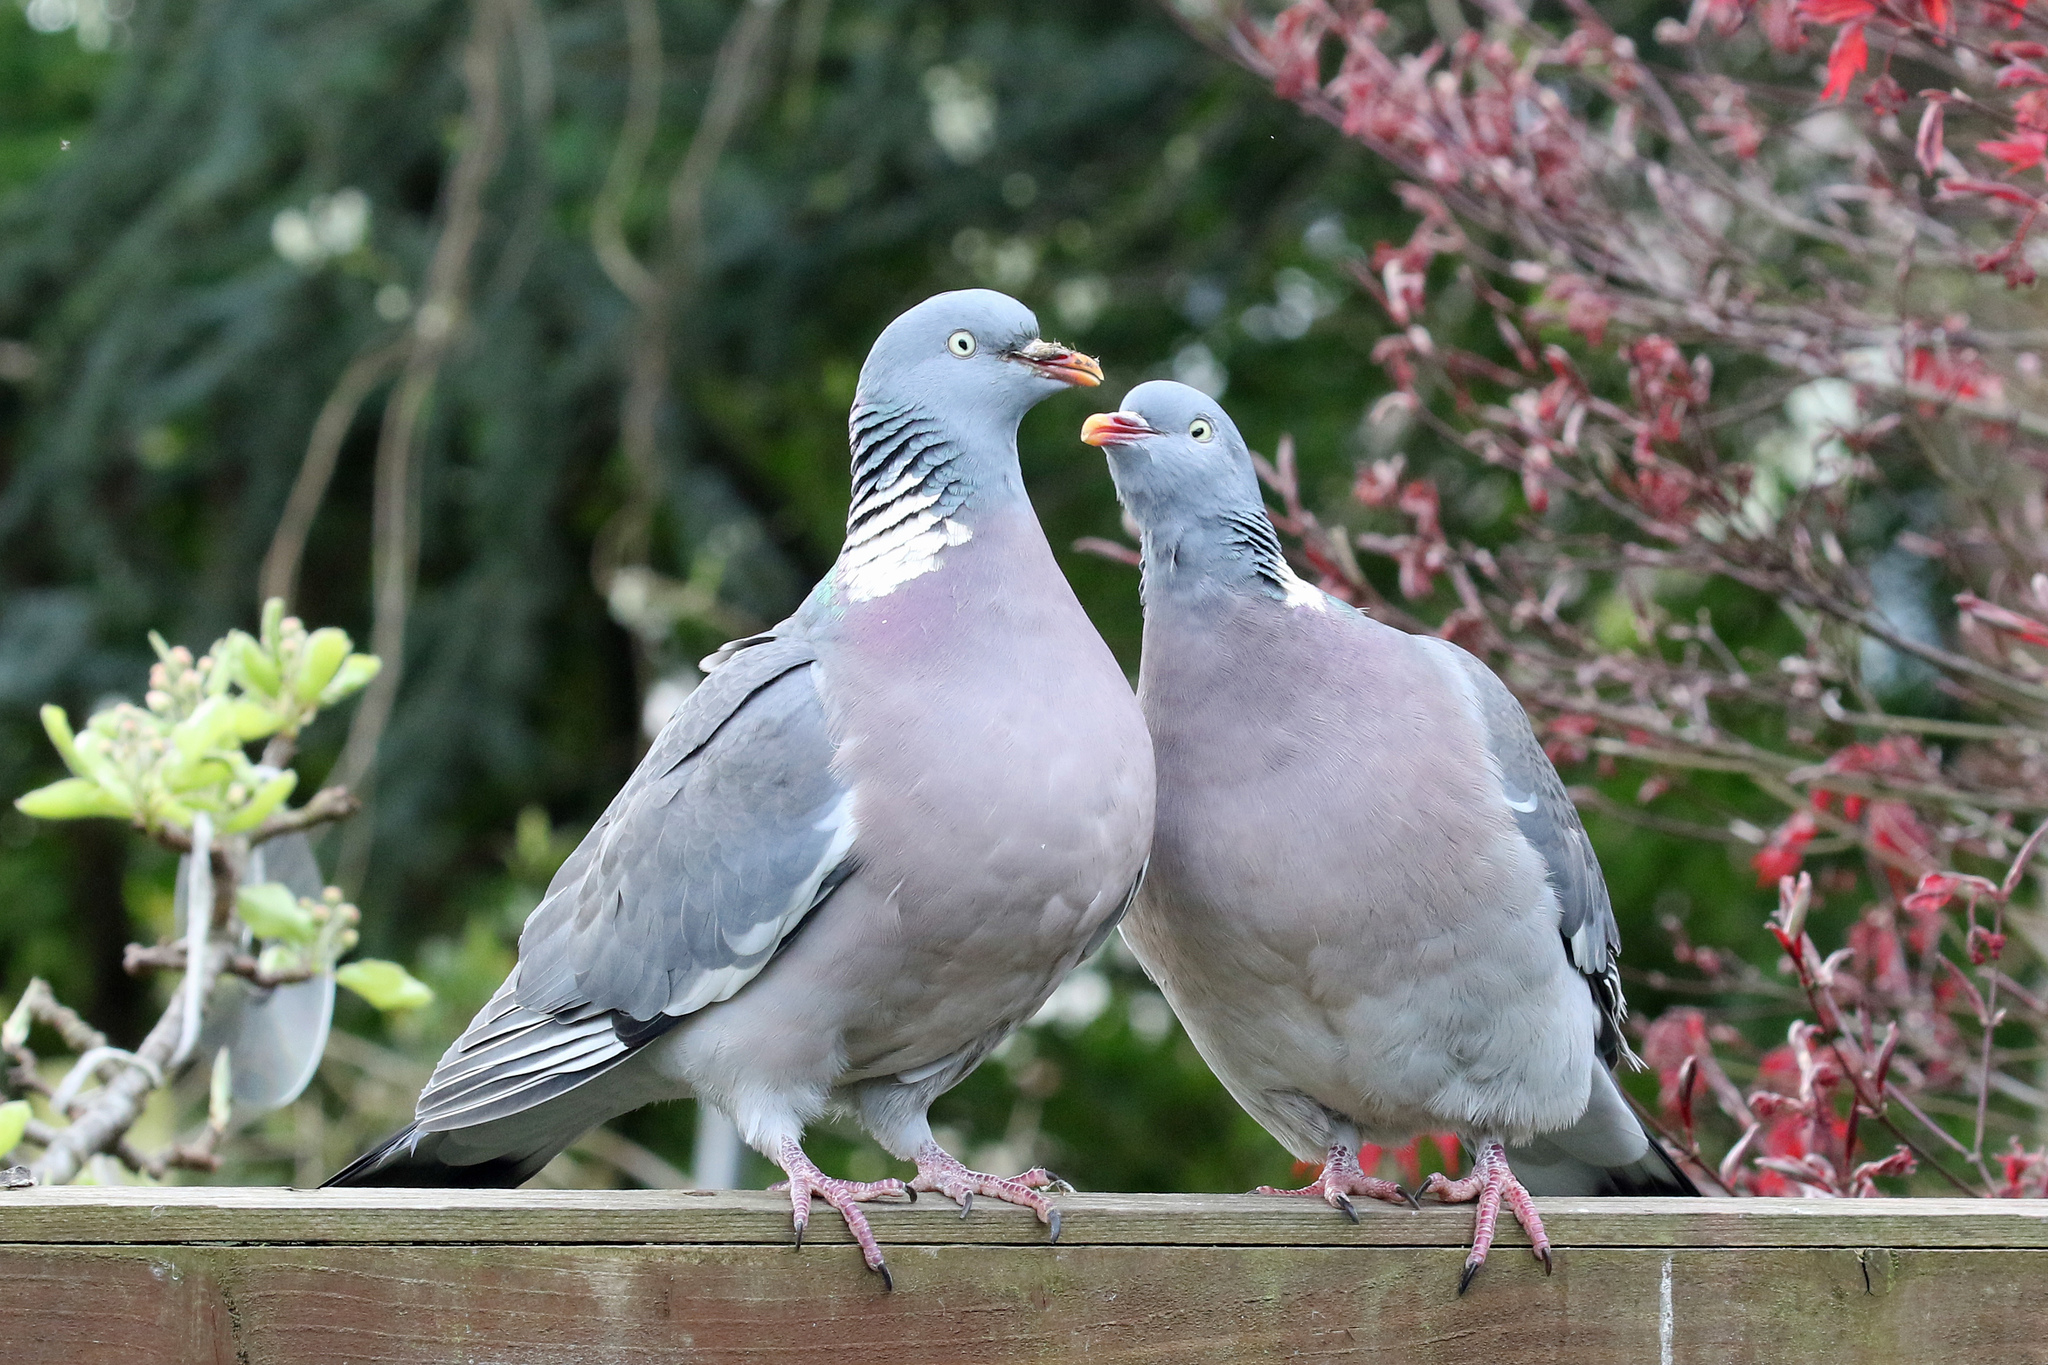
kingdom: Animalia
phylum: Chordata
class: Aves
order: Columbiformes
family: Columbidae
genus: Columba
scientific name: Columba palumbus
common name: Common wood pigeon
